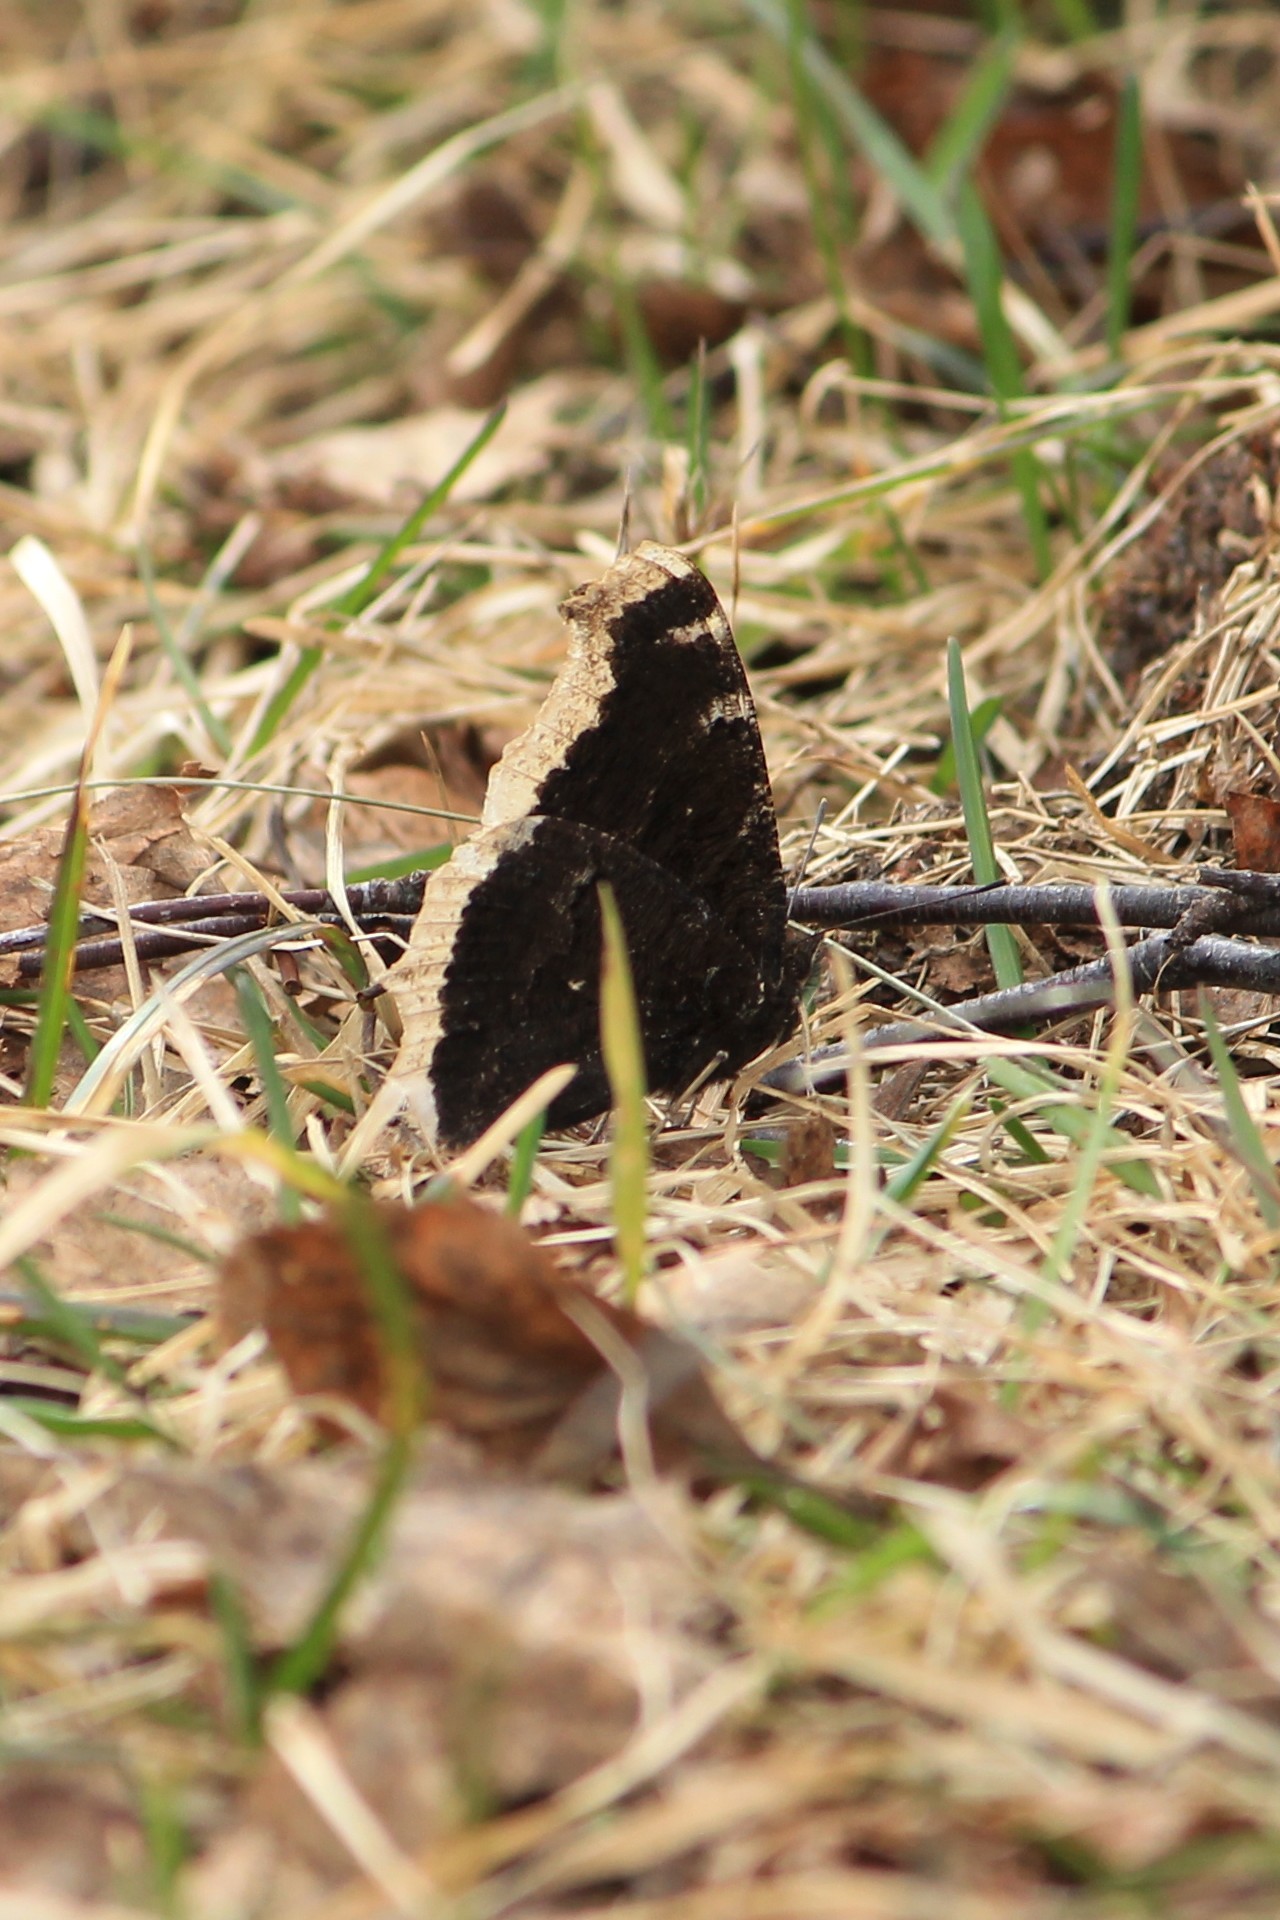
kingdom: Animalia
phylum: Arthropoda
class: Insecta
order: Lepidoptera
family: Nymphalidae
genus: Nymphalis
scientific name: Nymphalis antiopa
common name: Camberwell beauty
